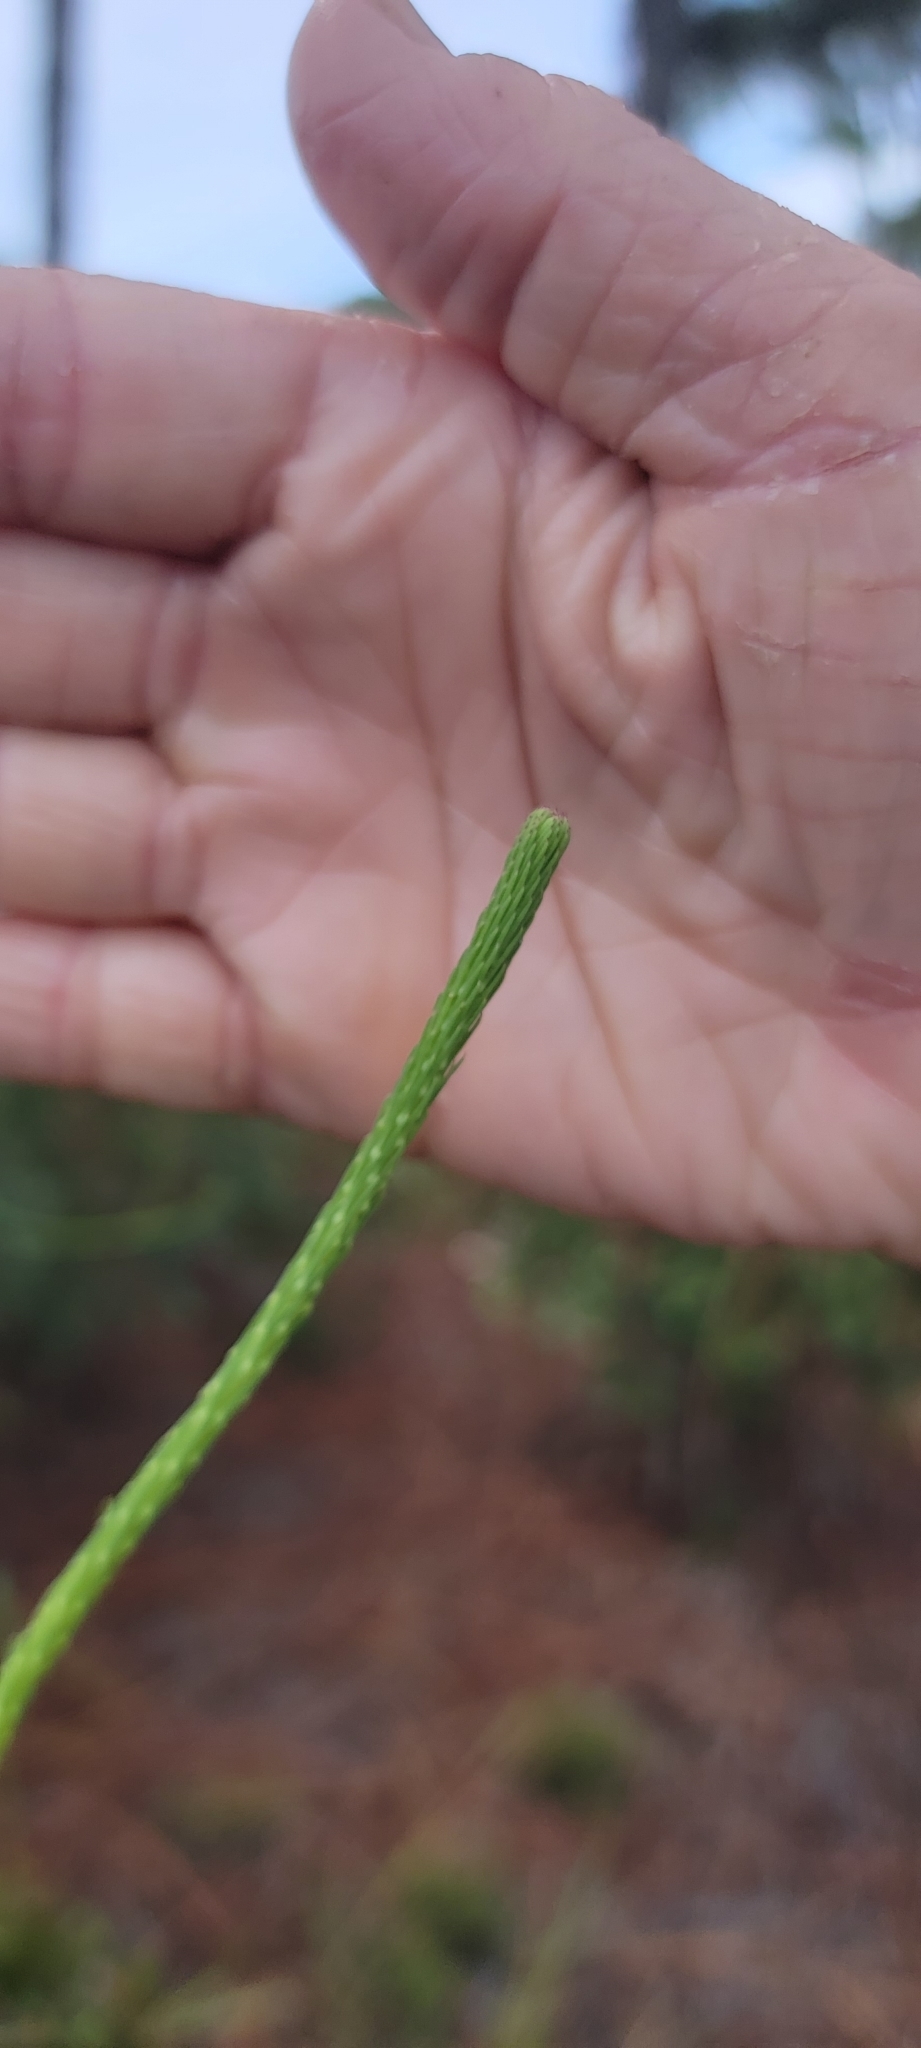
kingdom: Plantae
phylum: Tracheophyta
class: Magnoliopsida
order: Asterales
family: Asteraceae
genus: Liatris
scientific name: Liatris laevigata
